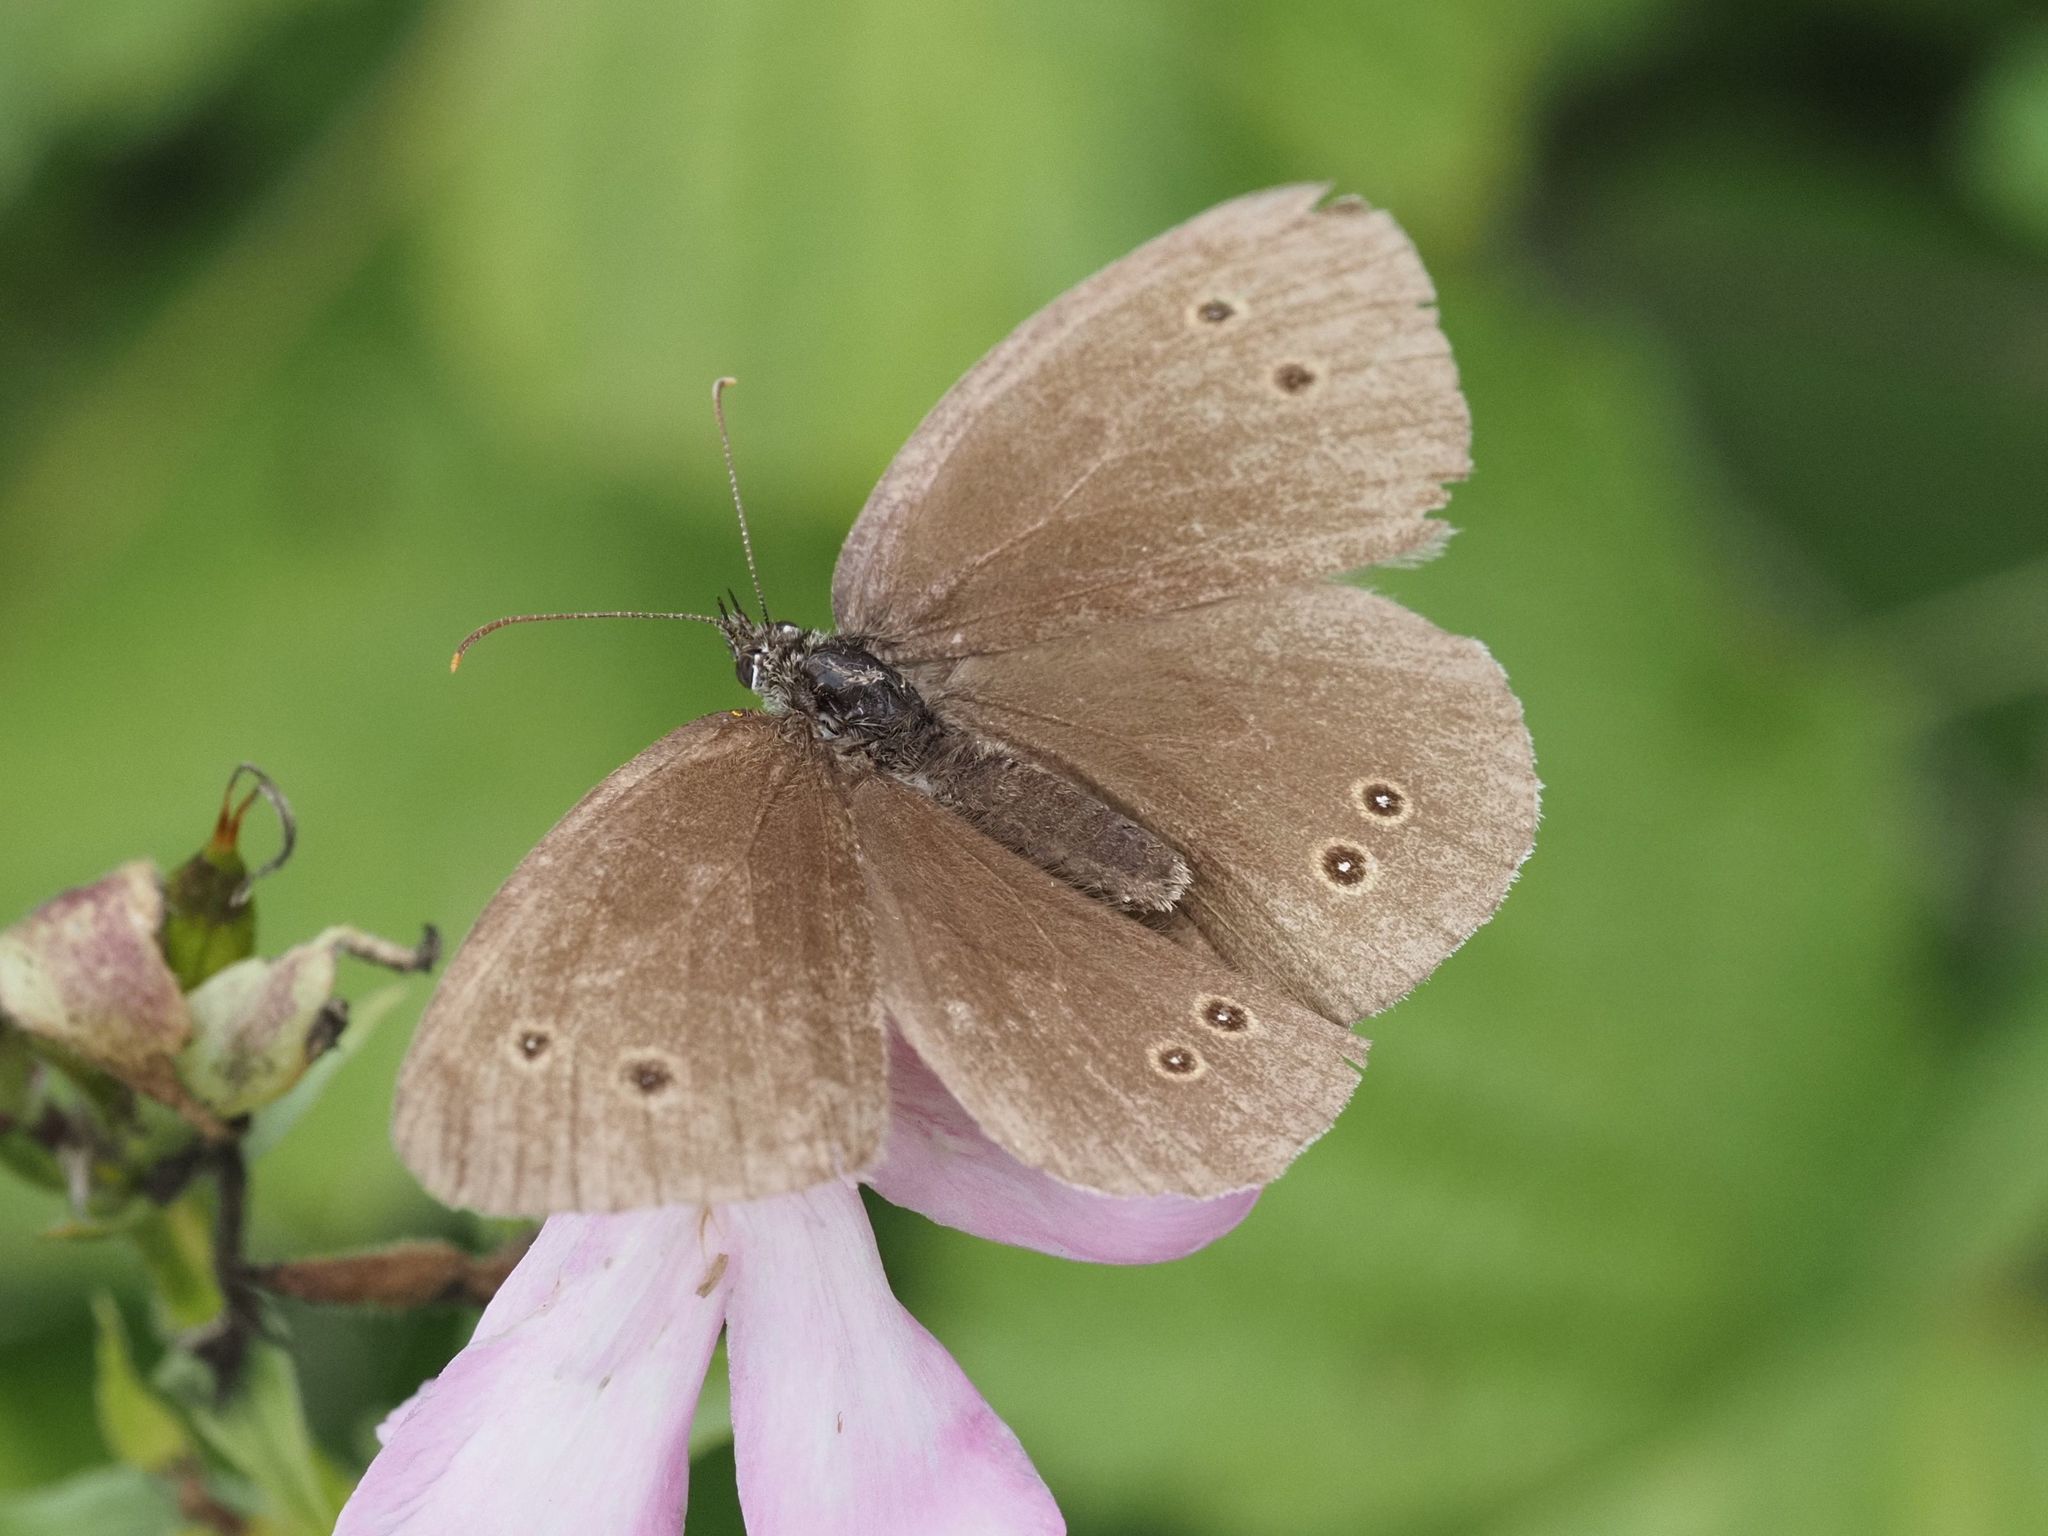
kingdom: Animalia
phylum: Arthropoda
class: Insecta
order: Lepidoptera
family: Nymphalidae
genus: Aphantopus
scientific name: Aphantopus hyperantus
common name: Ringlet
